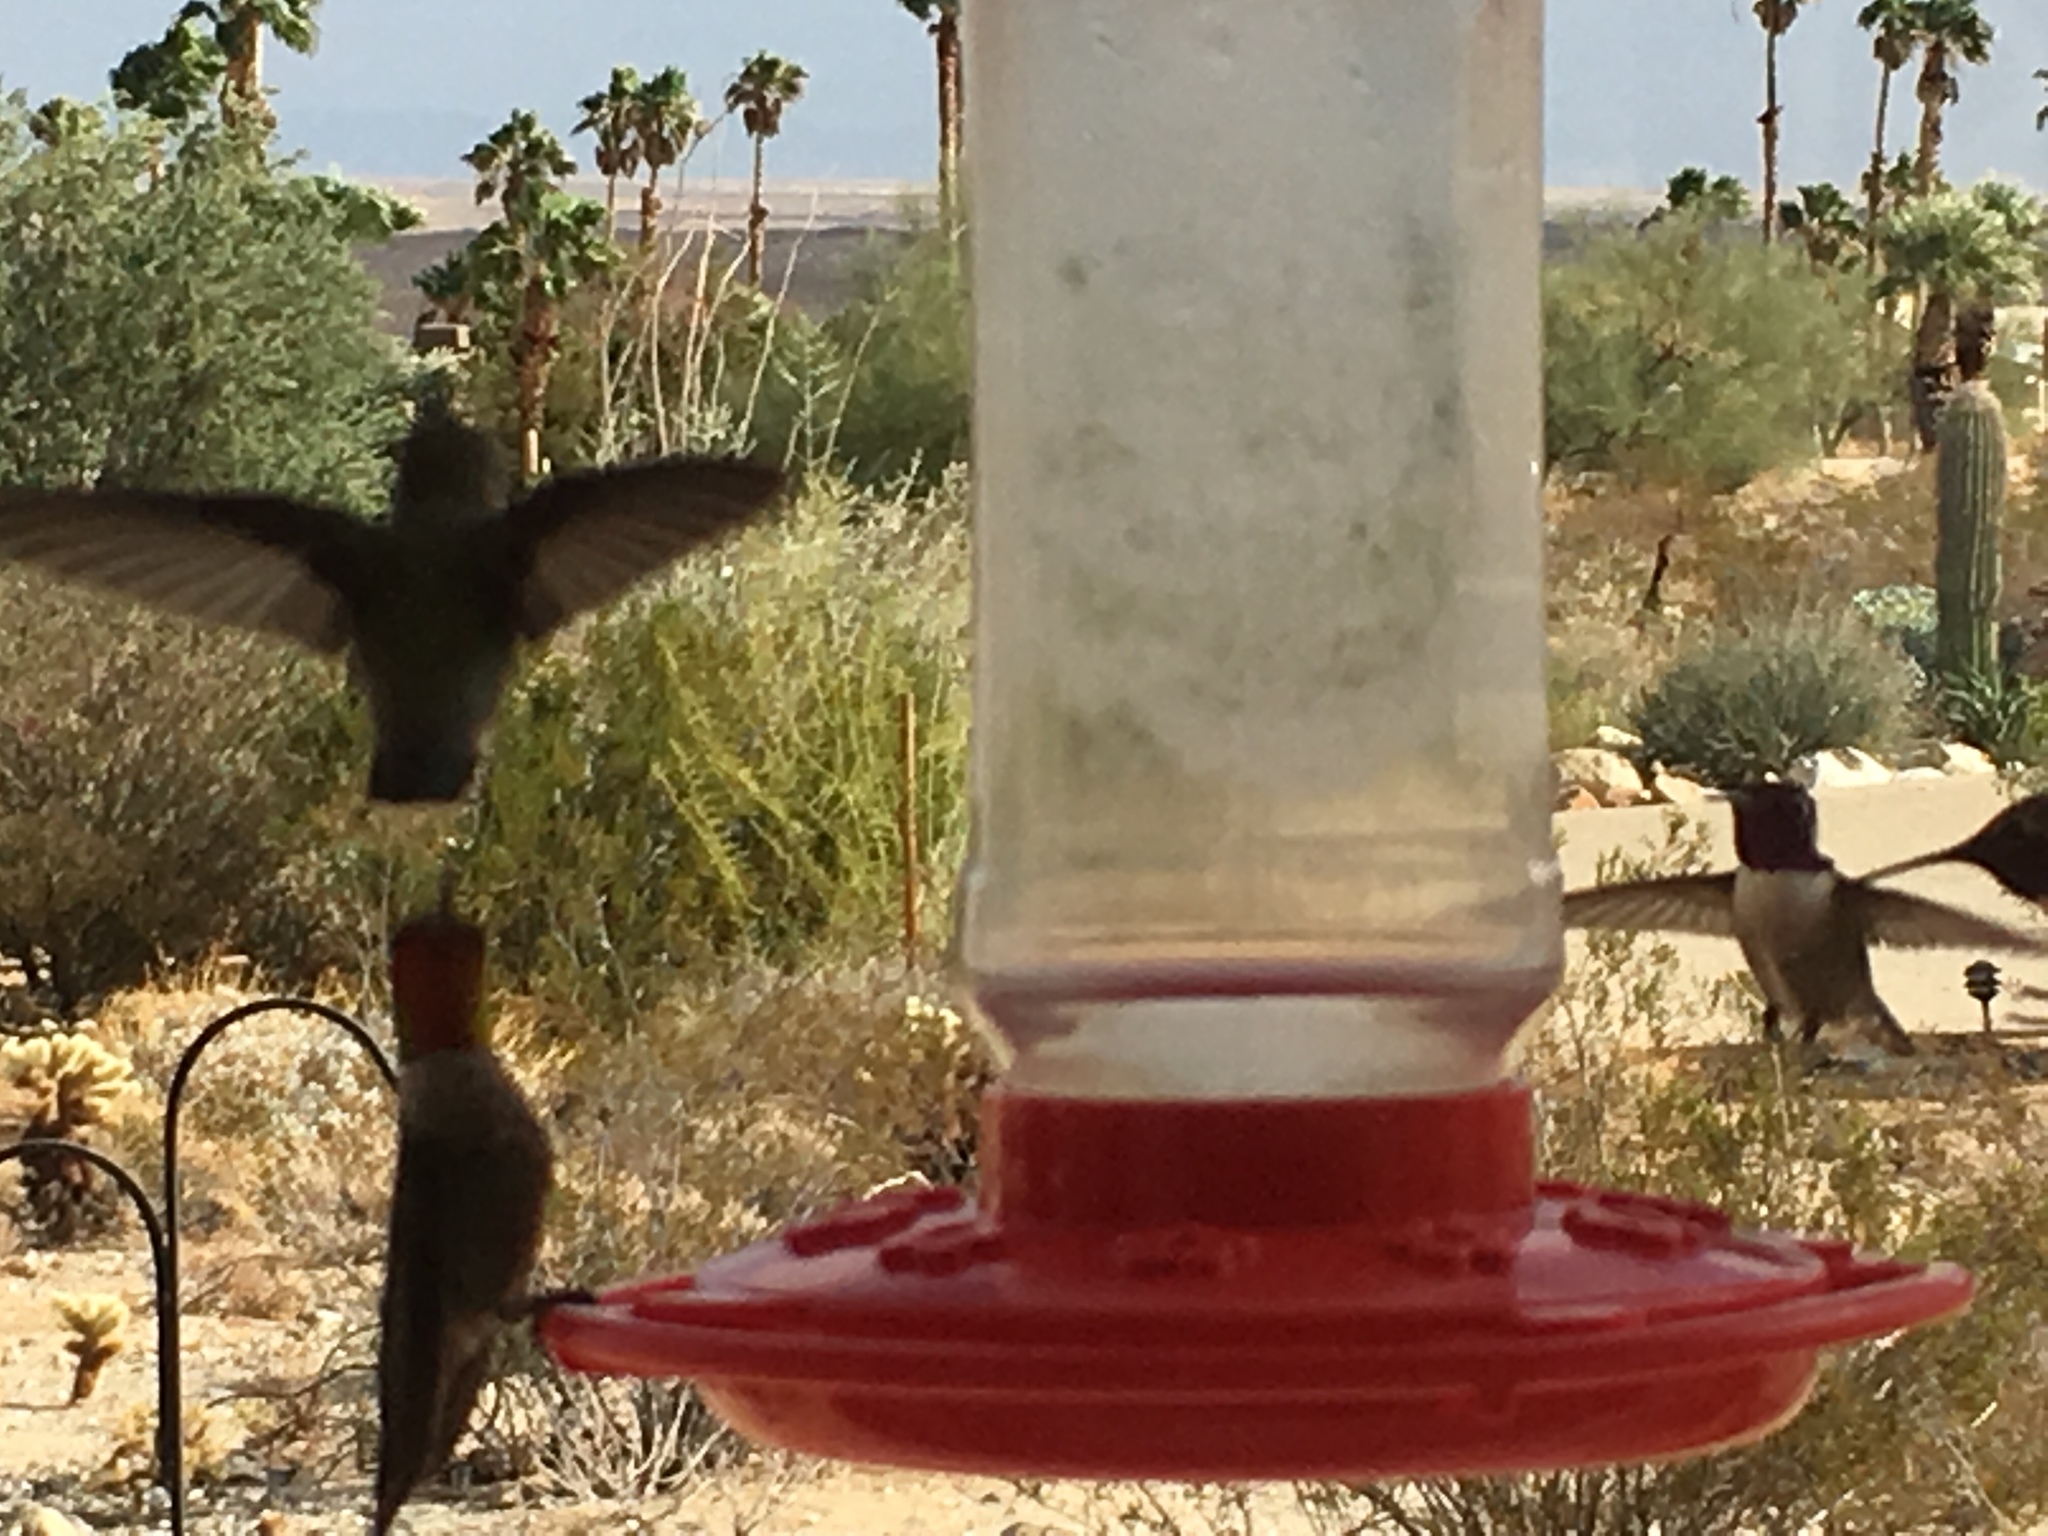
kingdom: Animalia
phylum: Chordata
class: Aves
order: Apodiformes
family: Trochilidae
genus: Calypte
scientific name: Calypte anna
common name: Anna's hummingbird
